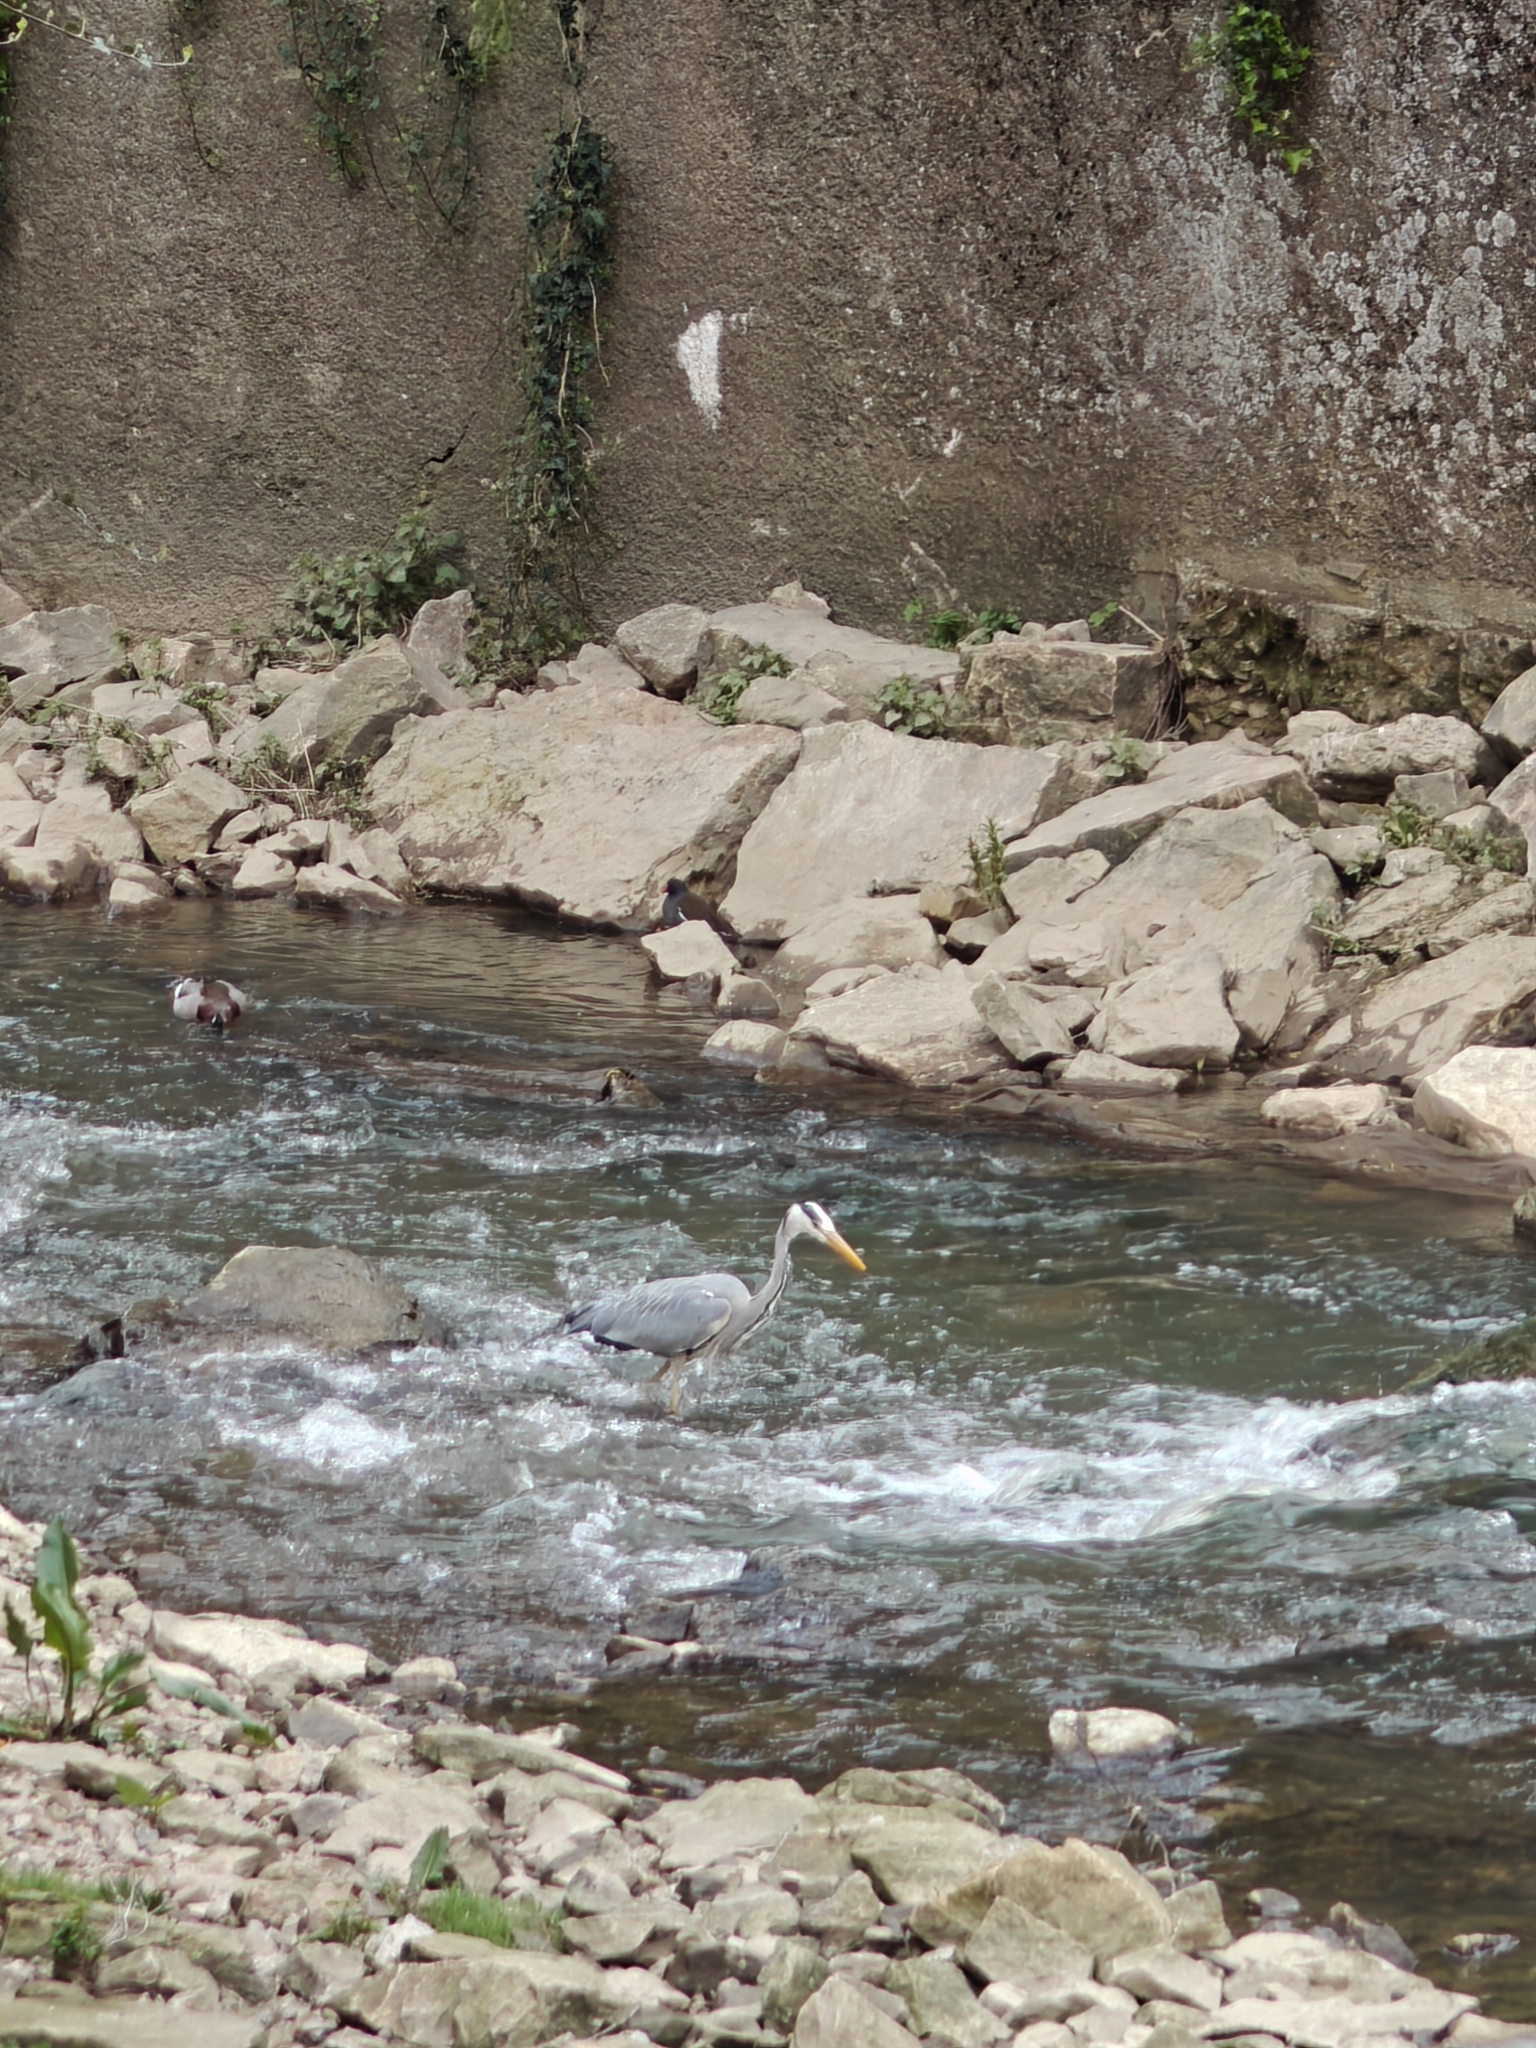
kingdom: Animalia
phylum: Chordata
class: Aves
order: Pelecaniformes
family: Ardeidae
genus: Ardea
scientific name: Ardea cinerea
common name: Grey heron
